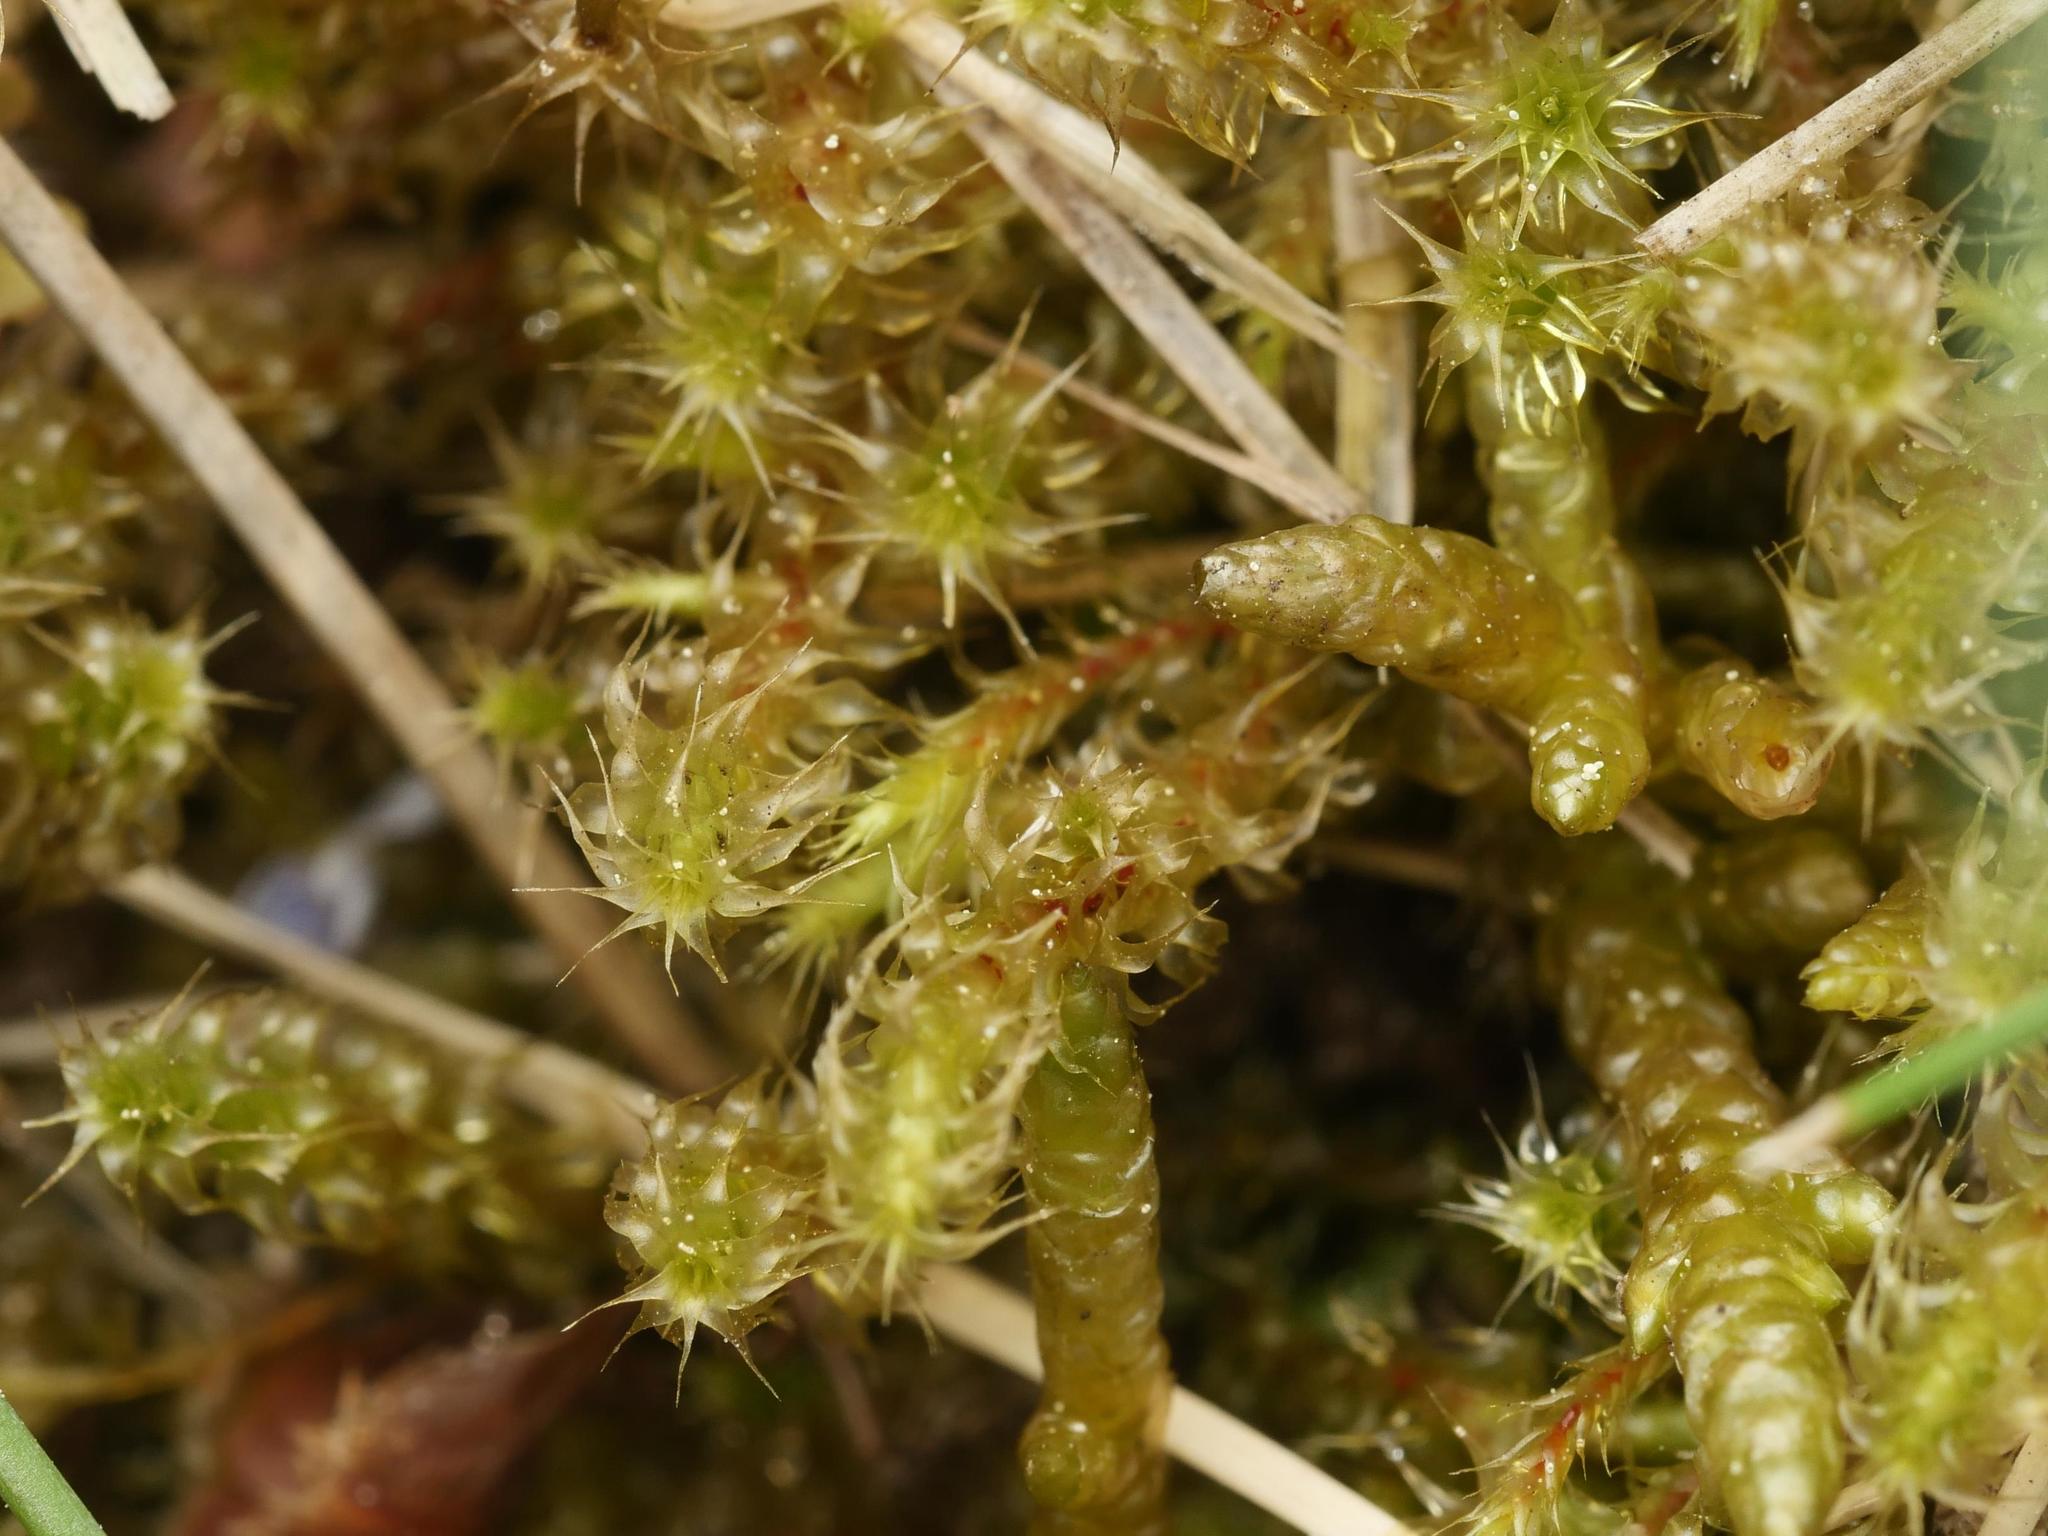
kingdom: Plantae
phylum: Bryophyta
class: Bryopsida
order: Hypnales
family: Hylocomiaceae
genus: Rhytidiadelphus
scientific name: Rhytidiadelphus squarrosus
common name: Springy turf-moss
